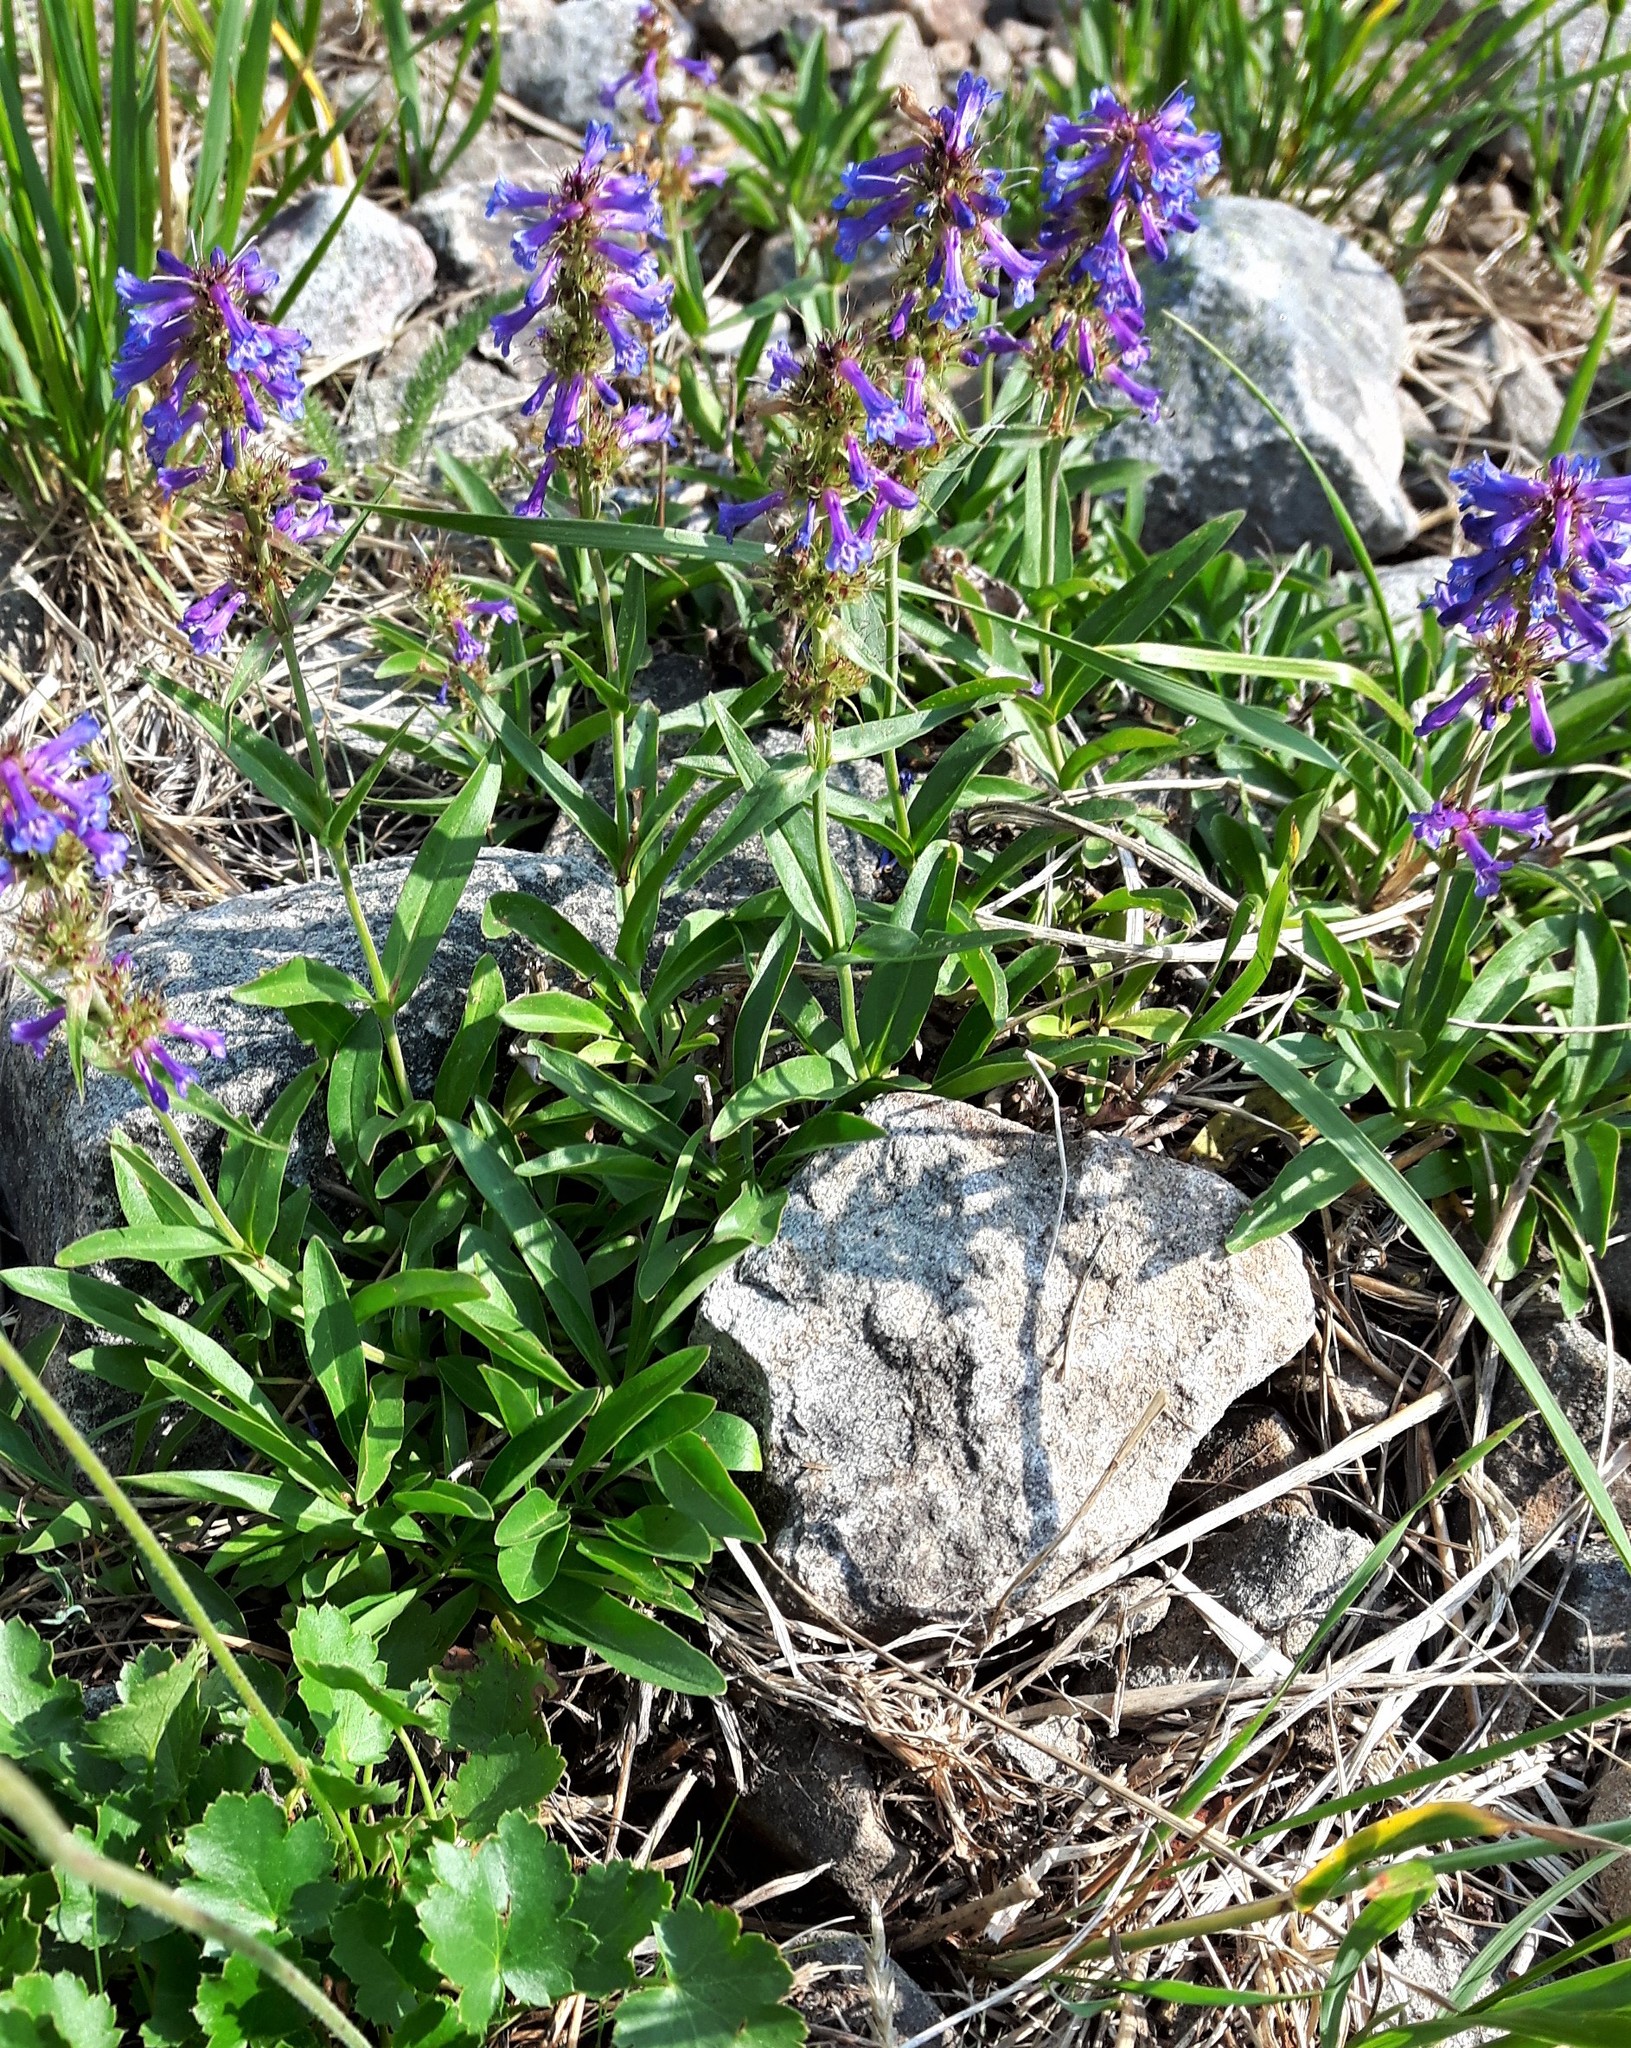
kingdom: Plantae
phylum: Tracheophyta
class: Magnoliopsida
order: Lamiales
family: Plantaginaceae
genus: Penstemon
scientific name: Penstemon procerus
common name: Small-flower penstemon
